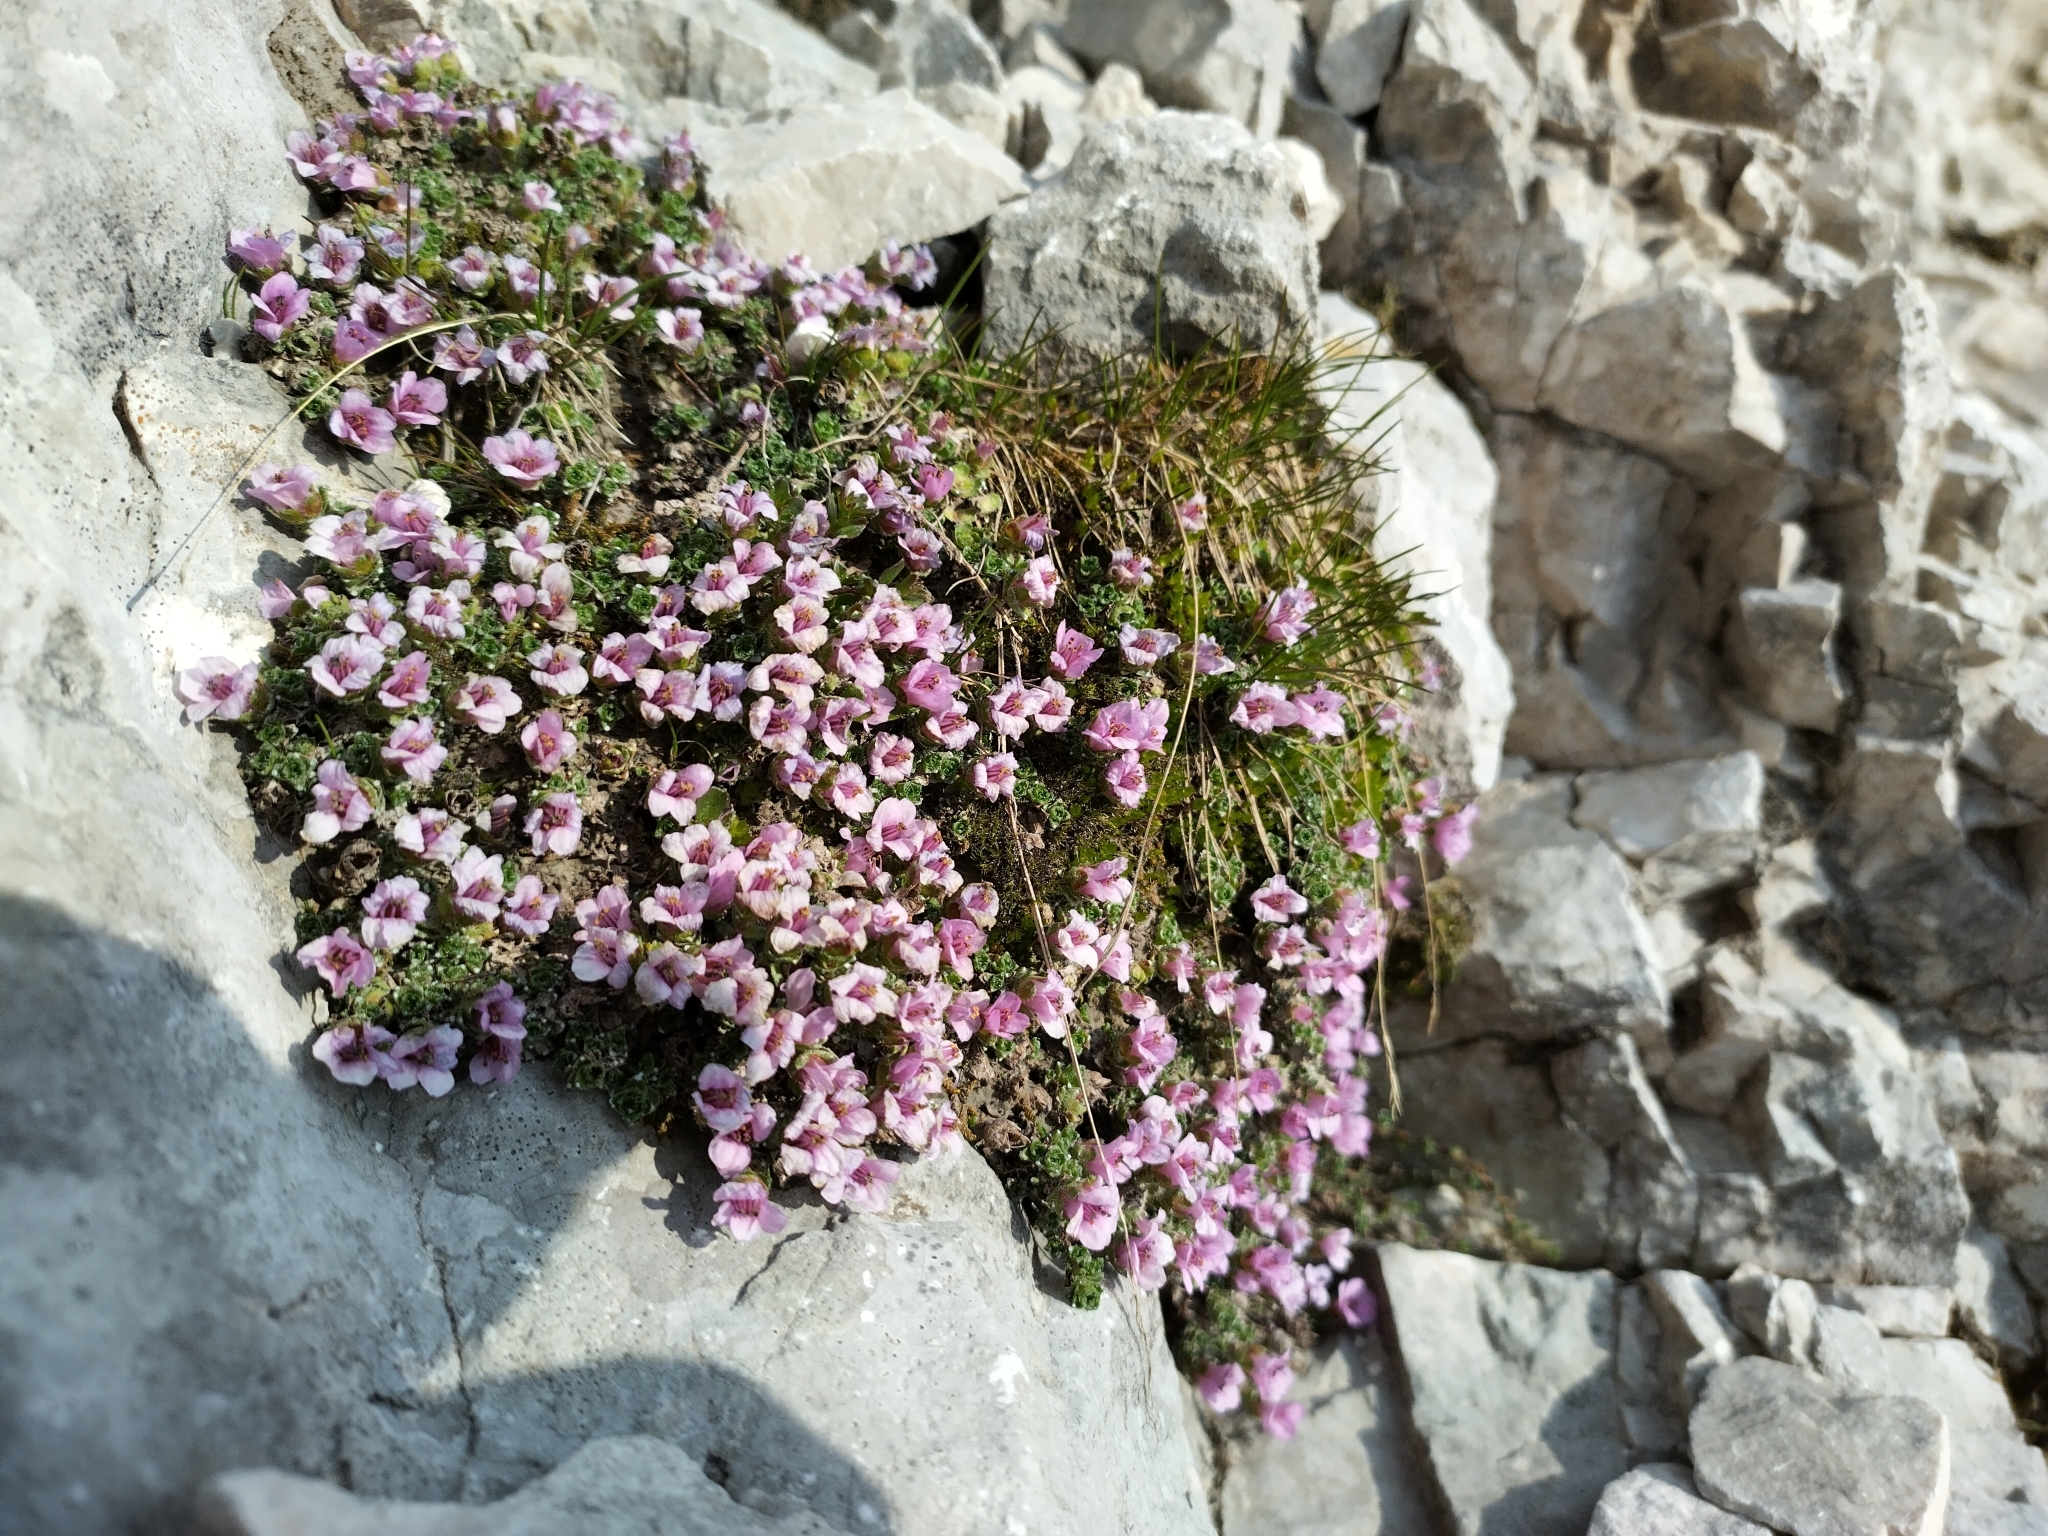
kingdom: Plantae
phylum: Tracheophyta
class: Magnoliopsida
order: Saxifragales
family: Saxifragaceae
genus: Saxifraga
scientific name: Saxifraga oppositifolia
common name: Purple saxifrage
